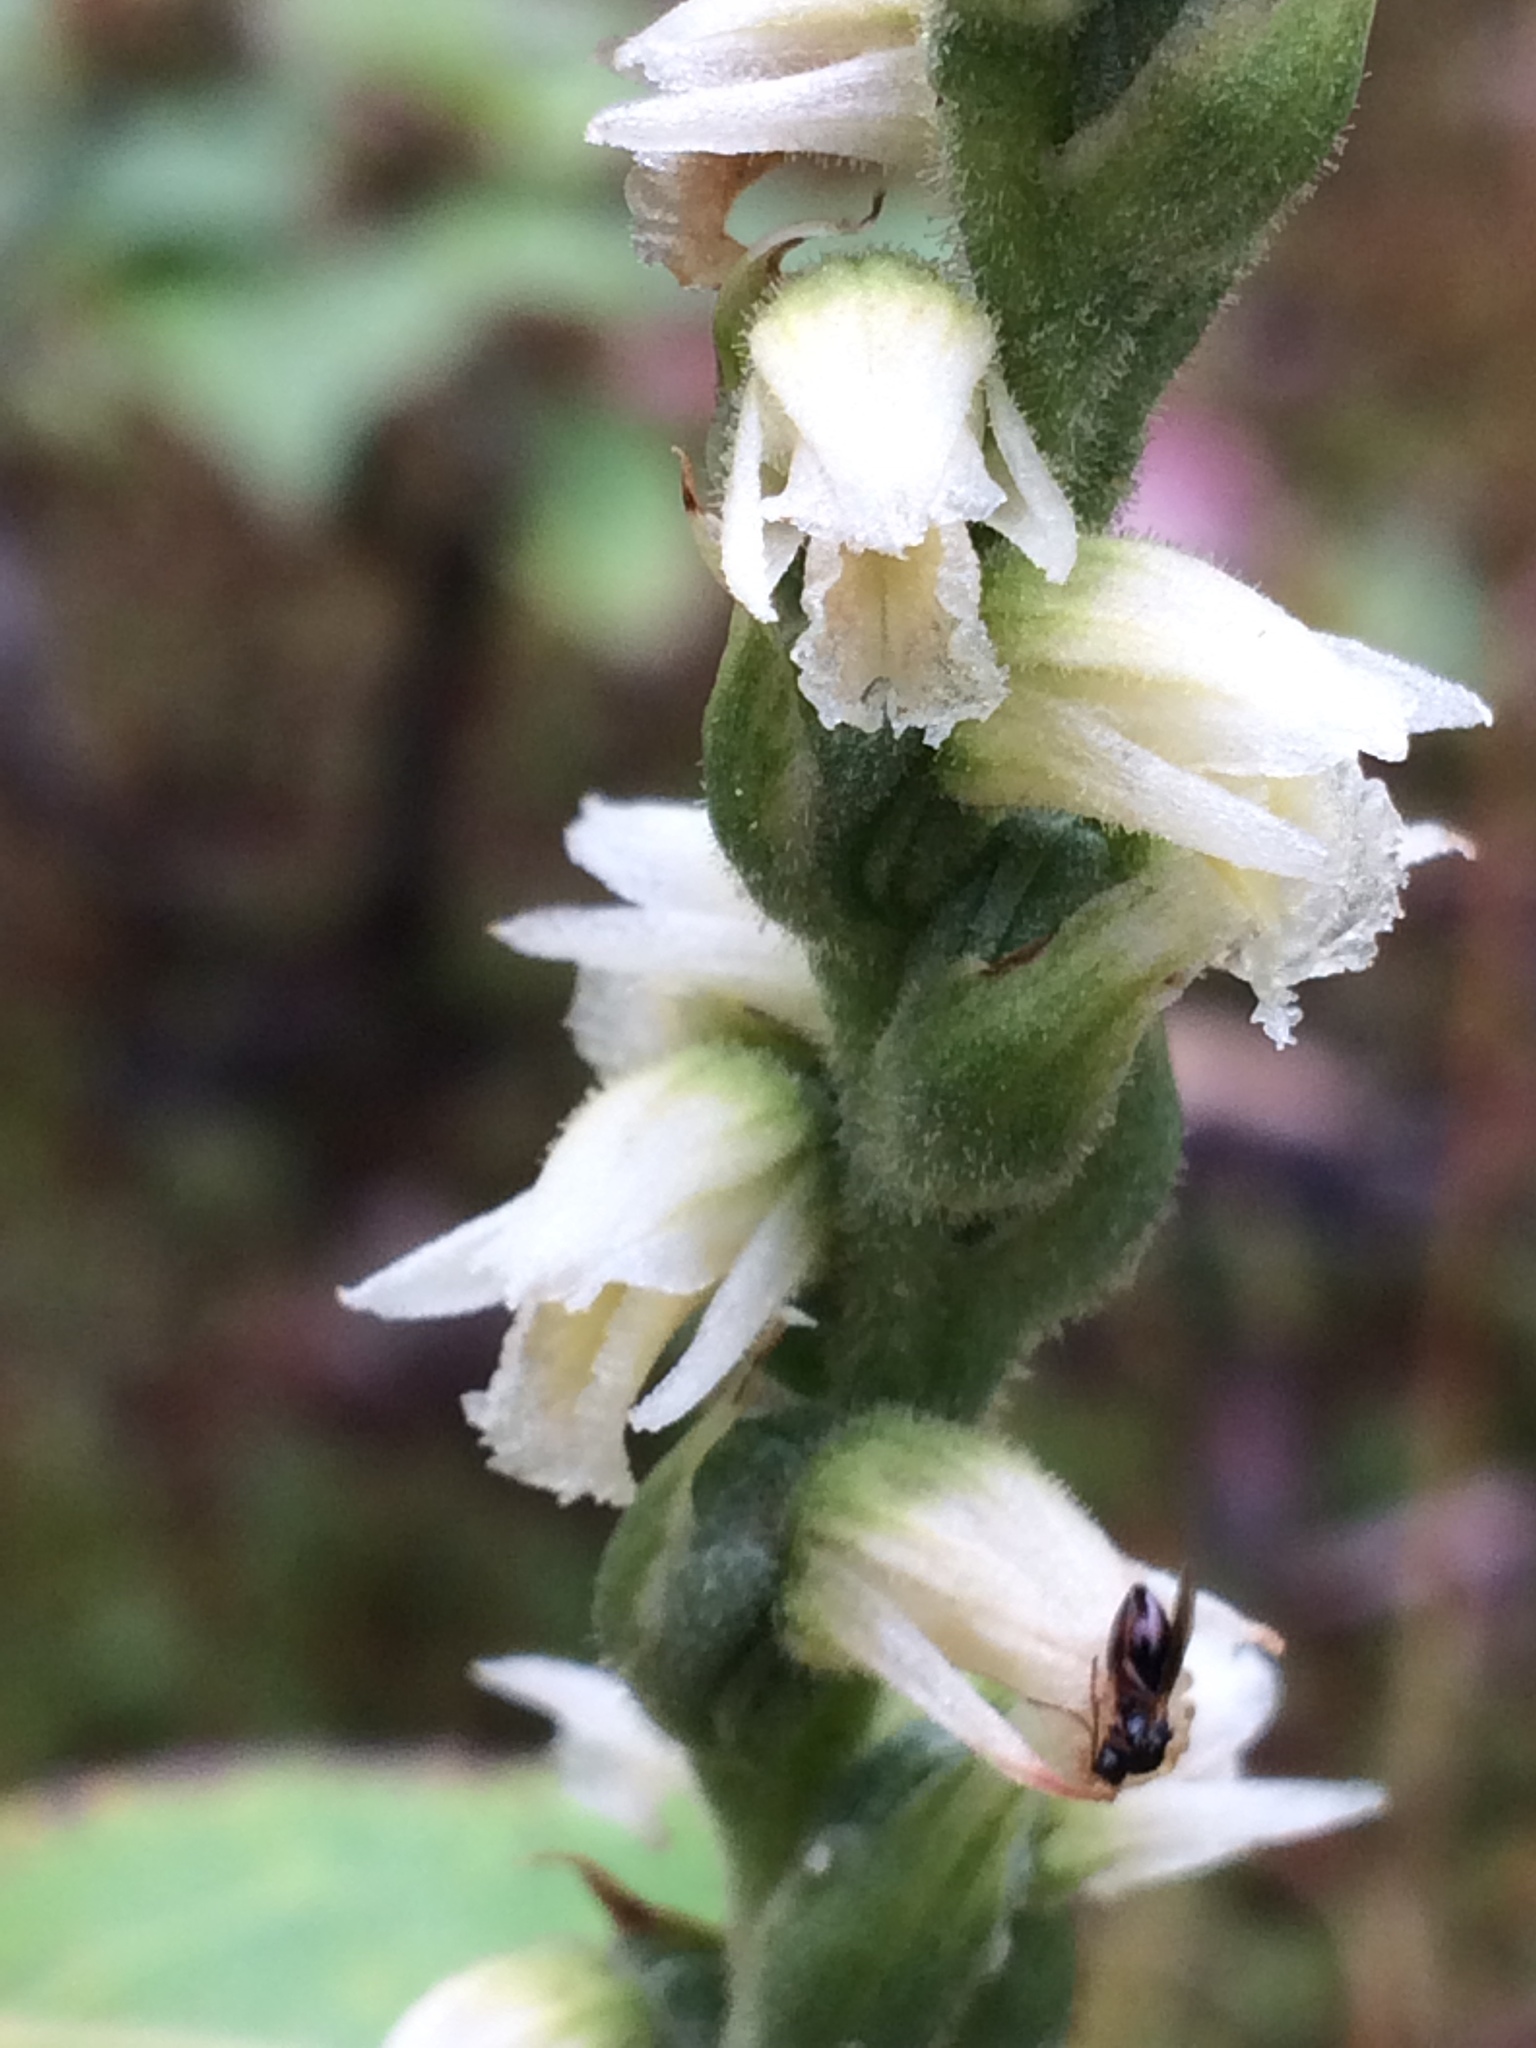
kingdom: Plantae
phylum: Tracheophyta
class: Liliopsida
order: Asparagales
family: Orchidaceae
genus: Spiranthes
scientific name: Spiranthes casei
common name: Case's ladies'-tresses
